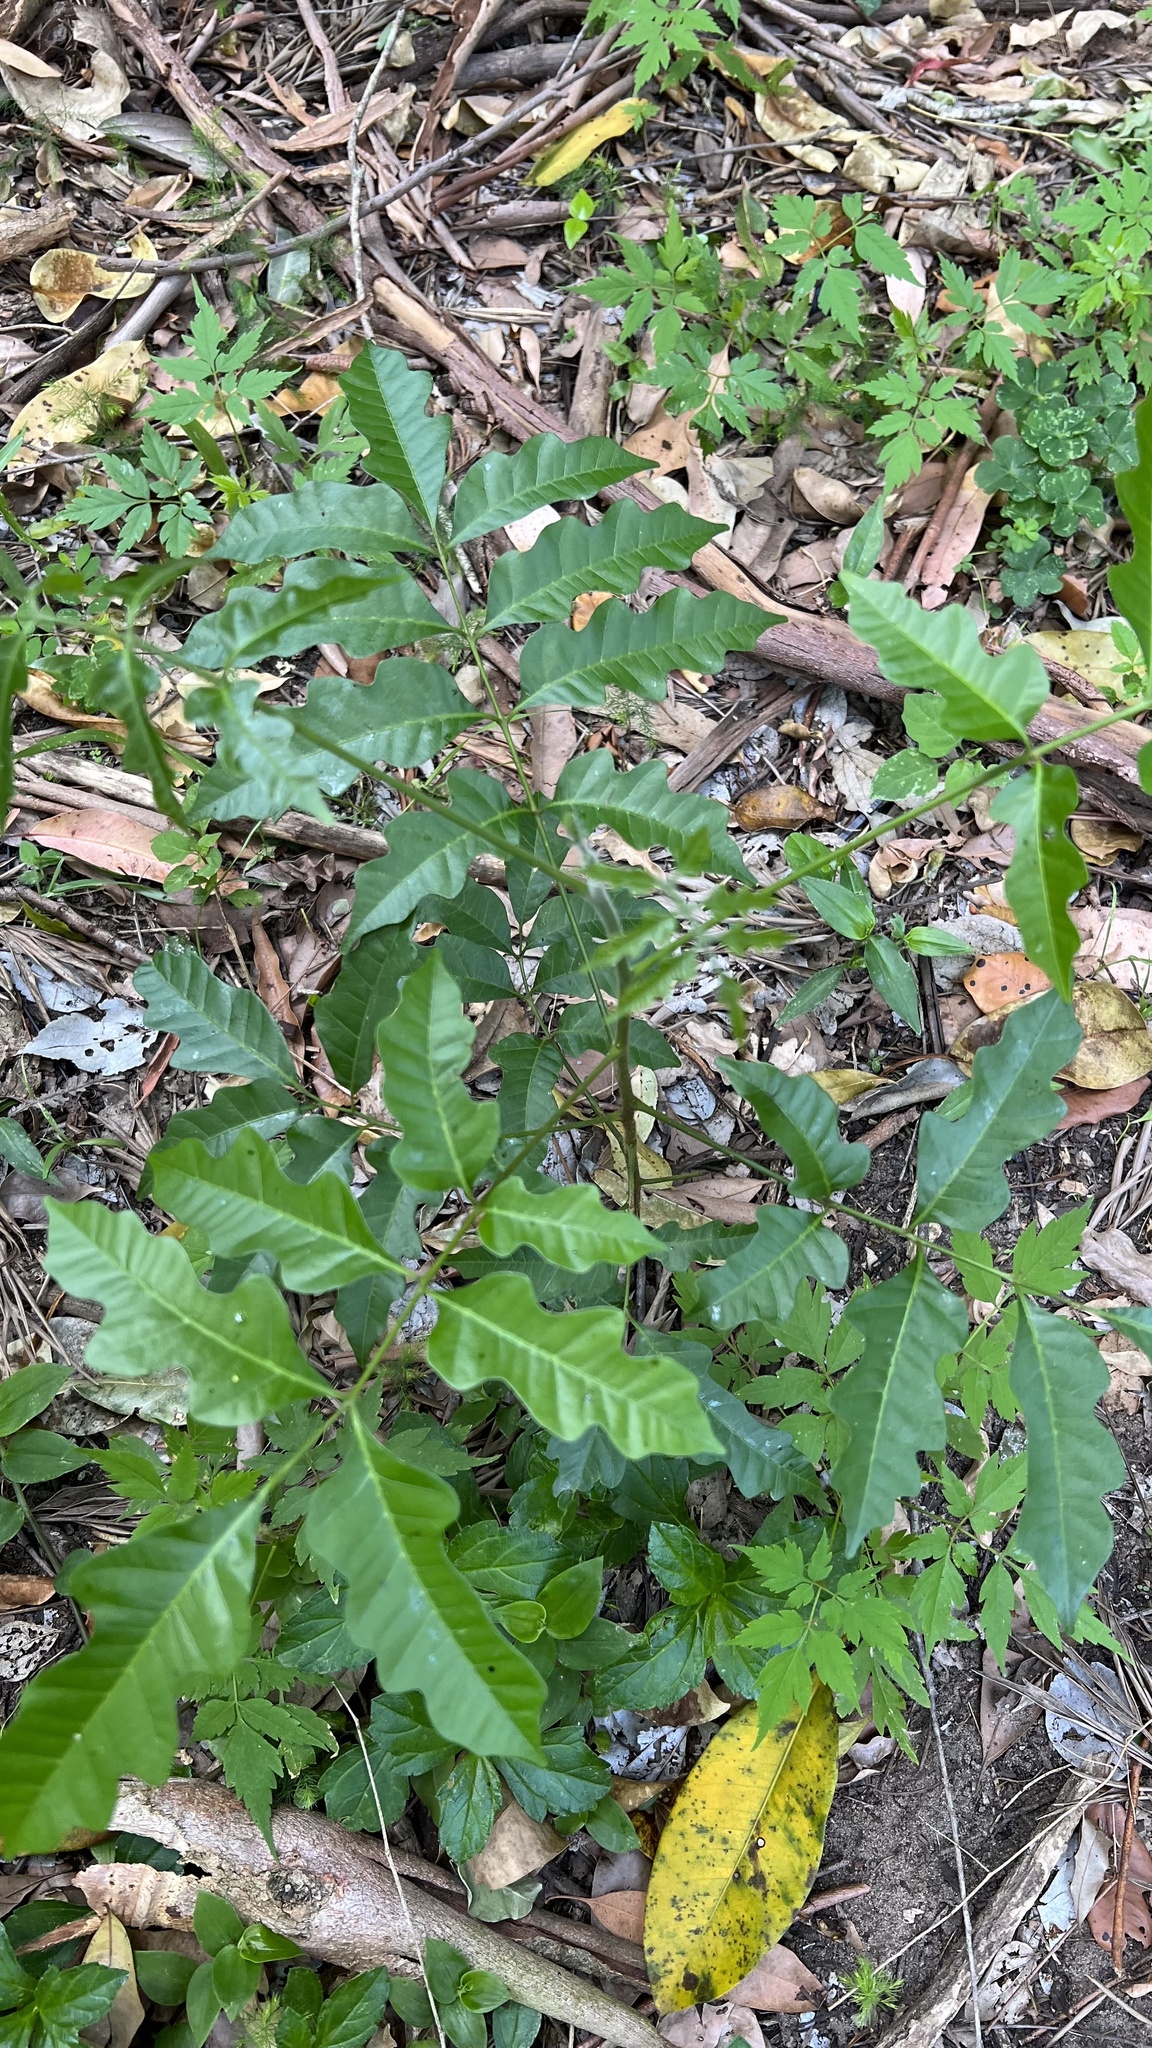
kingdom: Plantae
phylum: Tracheophyta
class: Magnoliopsida
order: Sapindales
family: Anacardiaceae
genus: Rhodosphaera
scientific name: Rhodosphaera rhodanthema
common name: Tulip satinwood
